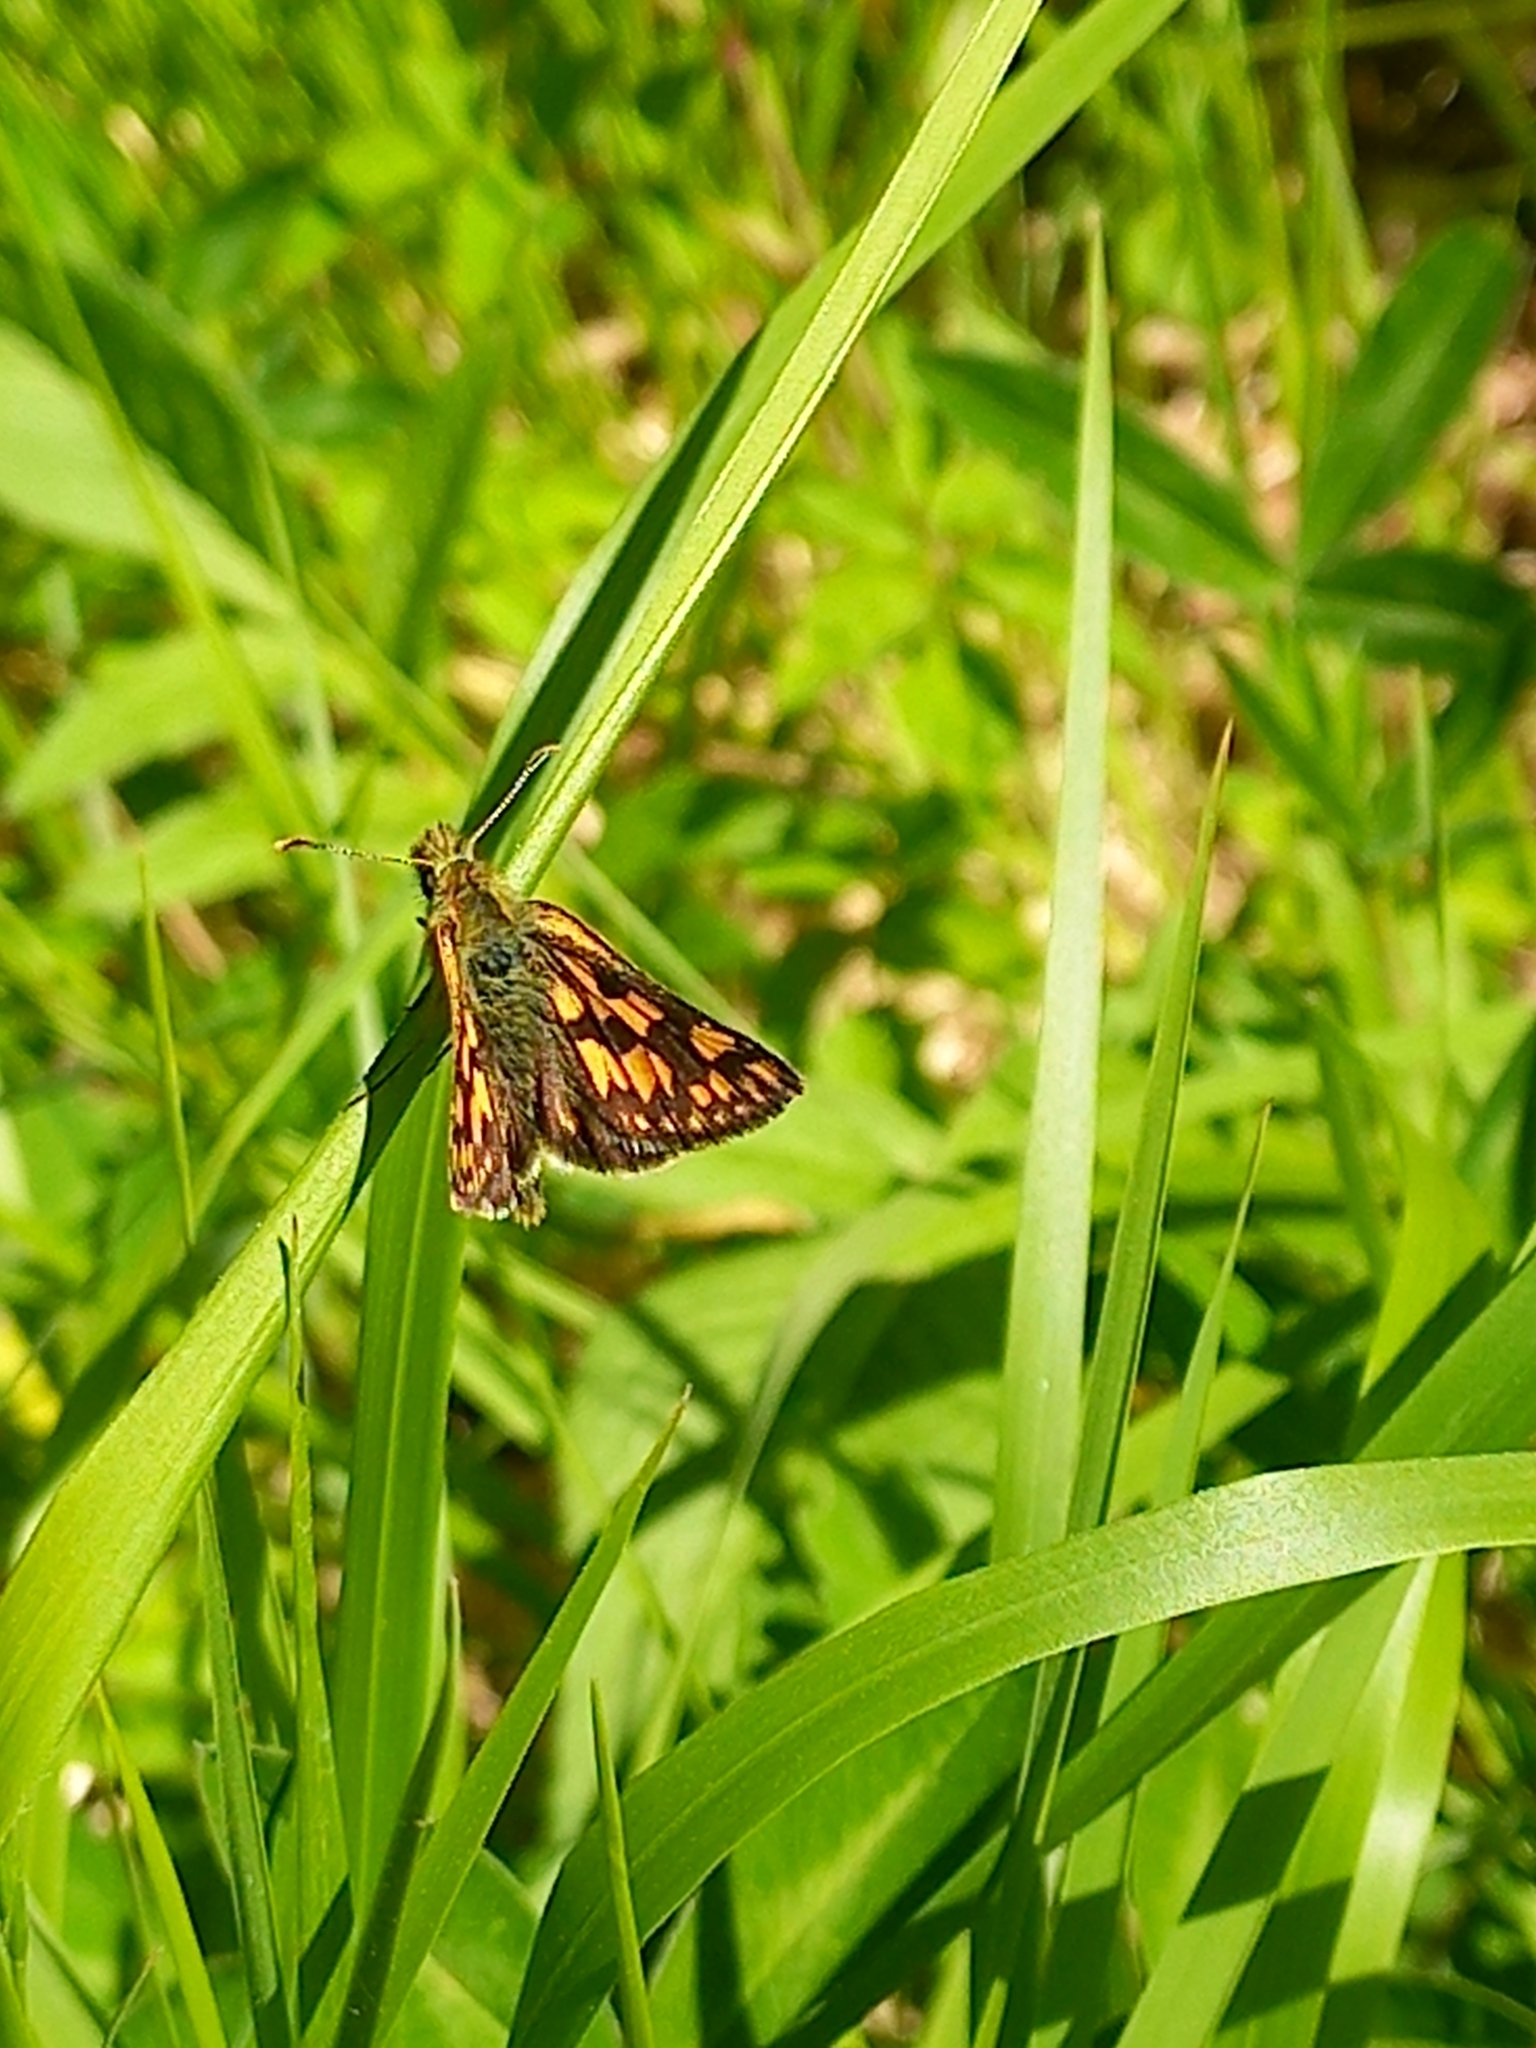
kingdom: Animalia
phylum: Arthropoda
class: Insecta
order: Lepidoptera
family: Hesperiidae
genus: Carterocephalus
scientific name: Carterocephalus palaemon
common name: Chequered skipper
